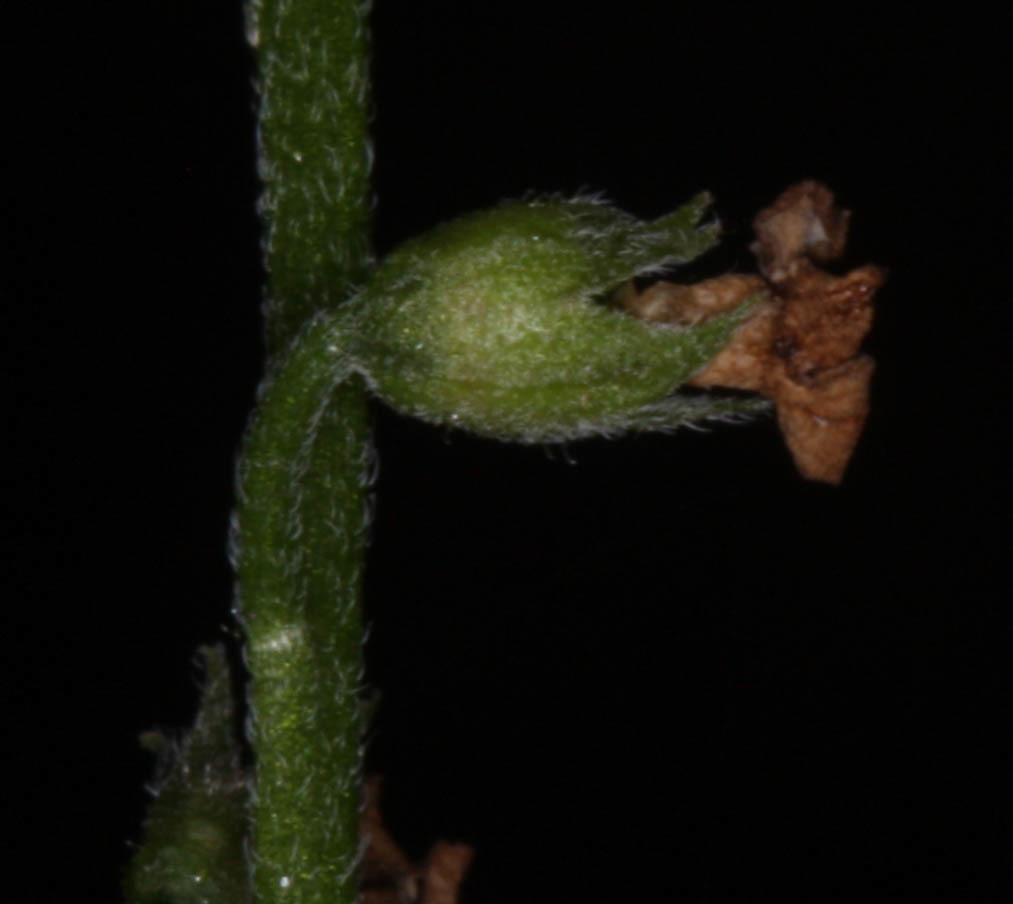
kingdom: Plantae
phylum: Tracheophyta
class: Magnoliopsida
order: Boraginales
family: Boraginaceae
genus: Myosotis
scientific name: Myosotis latifolia
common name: Broadleaf forget-me-not
